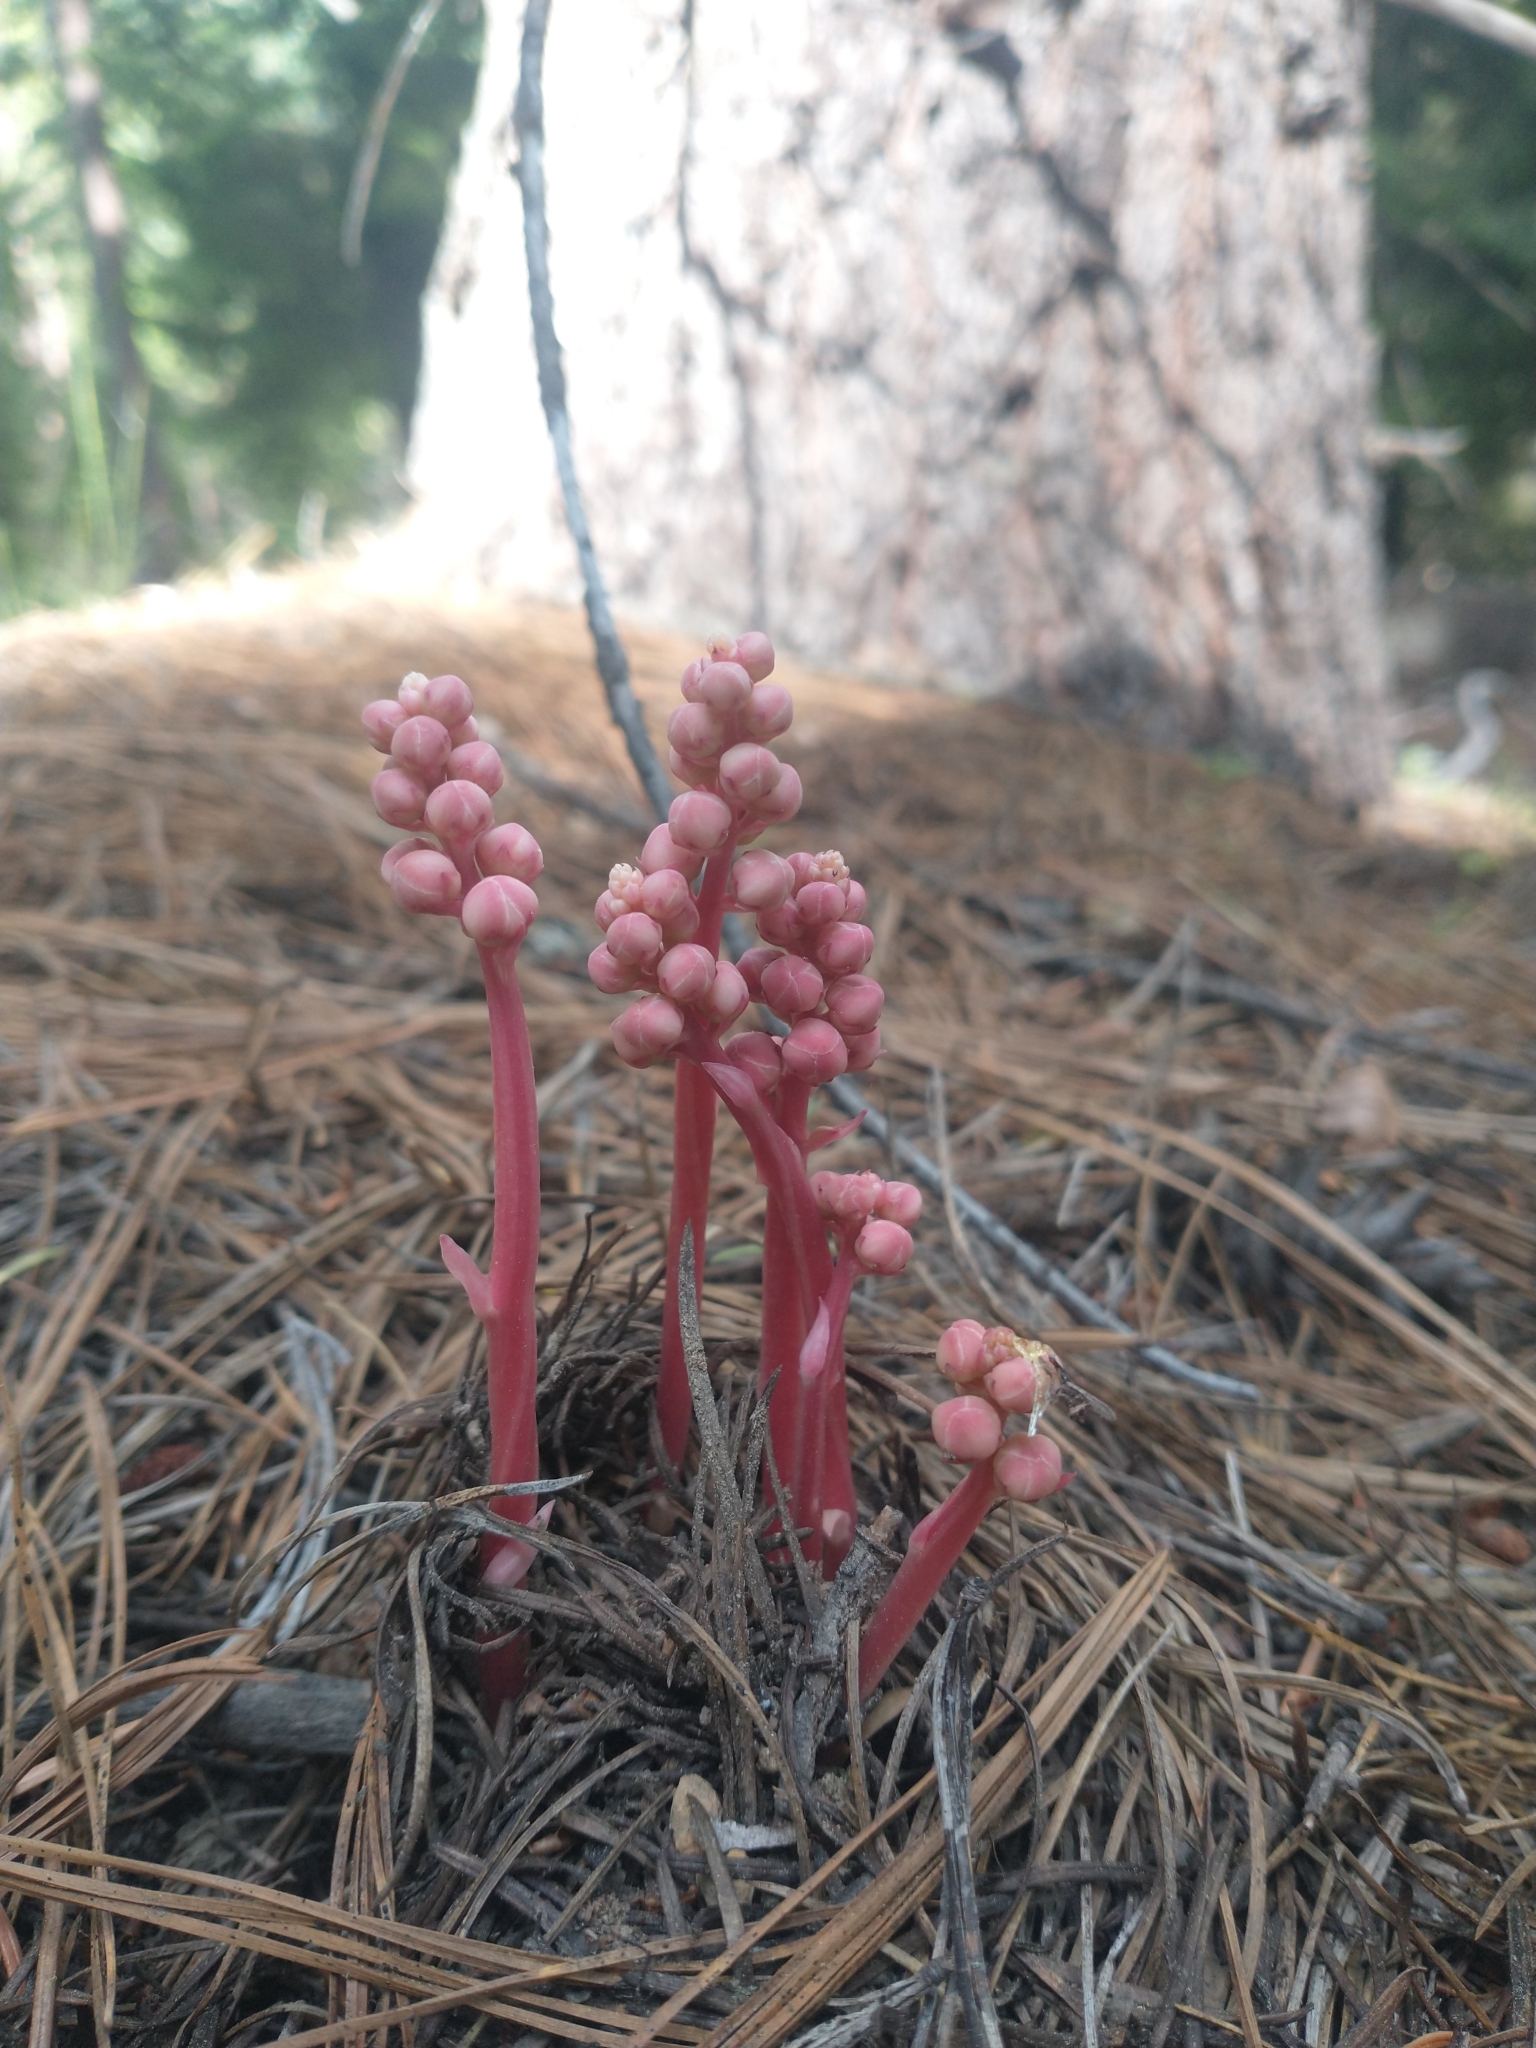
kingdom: Plantae
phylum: Tracheophyta
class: Magnoliopsida
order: Ericales
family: Ericaceae
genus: Pyrola
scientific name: Pyrola aphylla
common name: Leafless wintergreen
